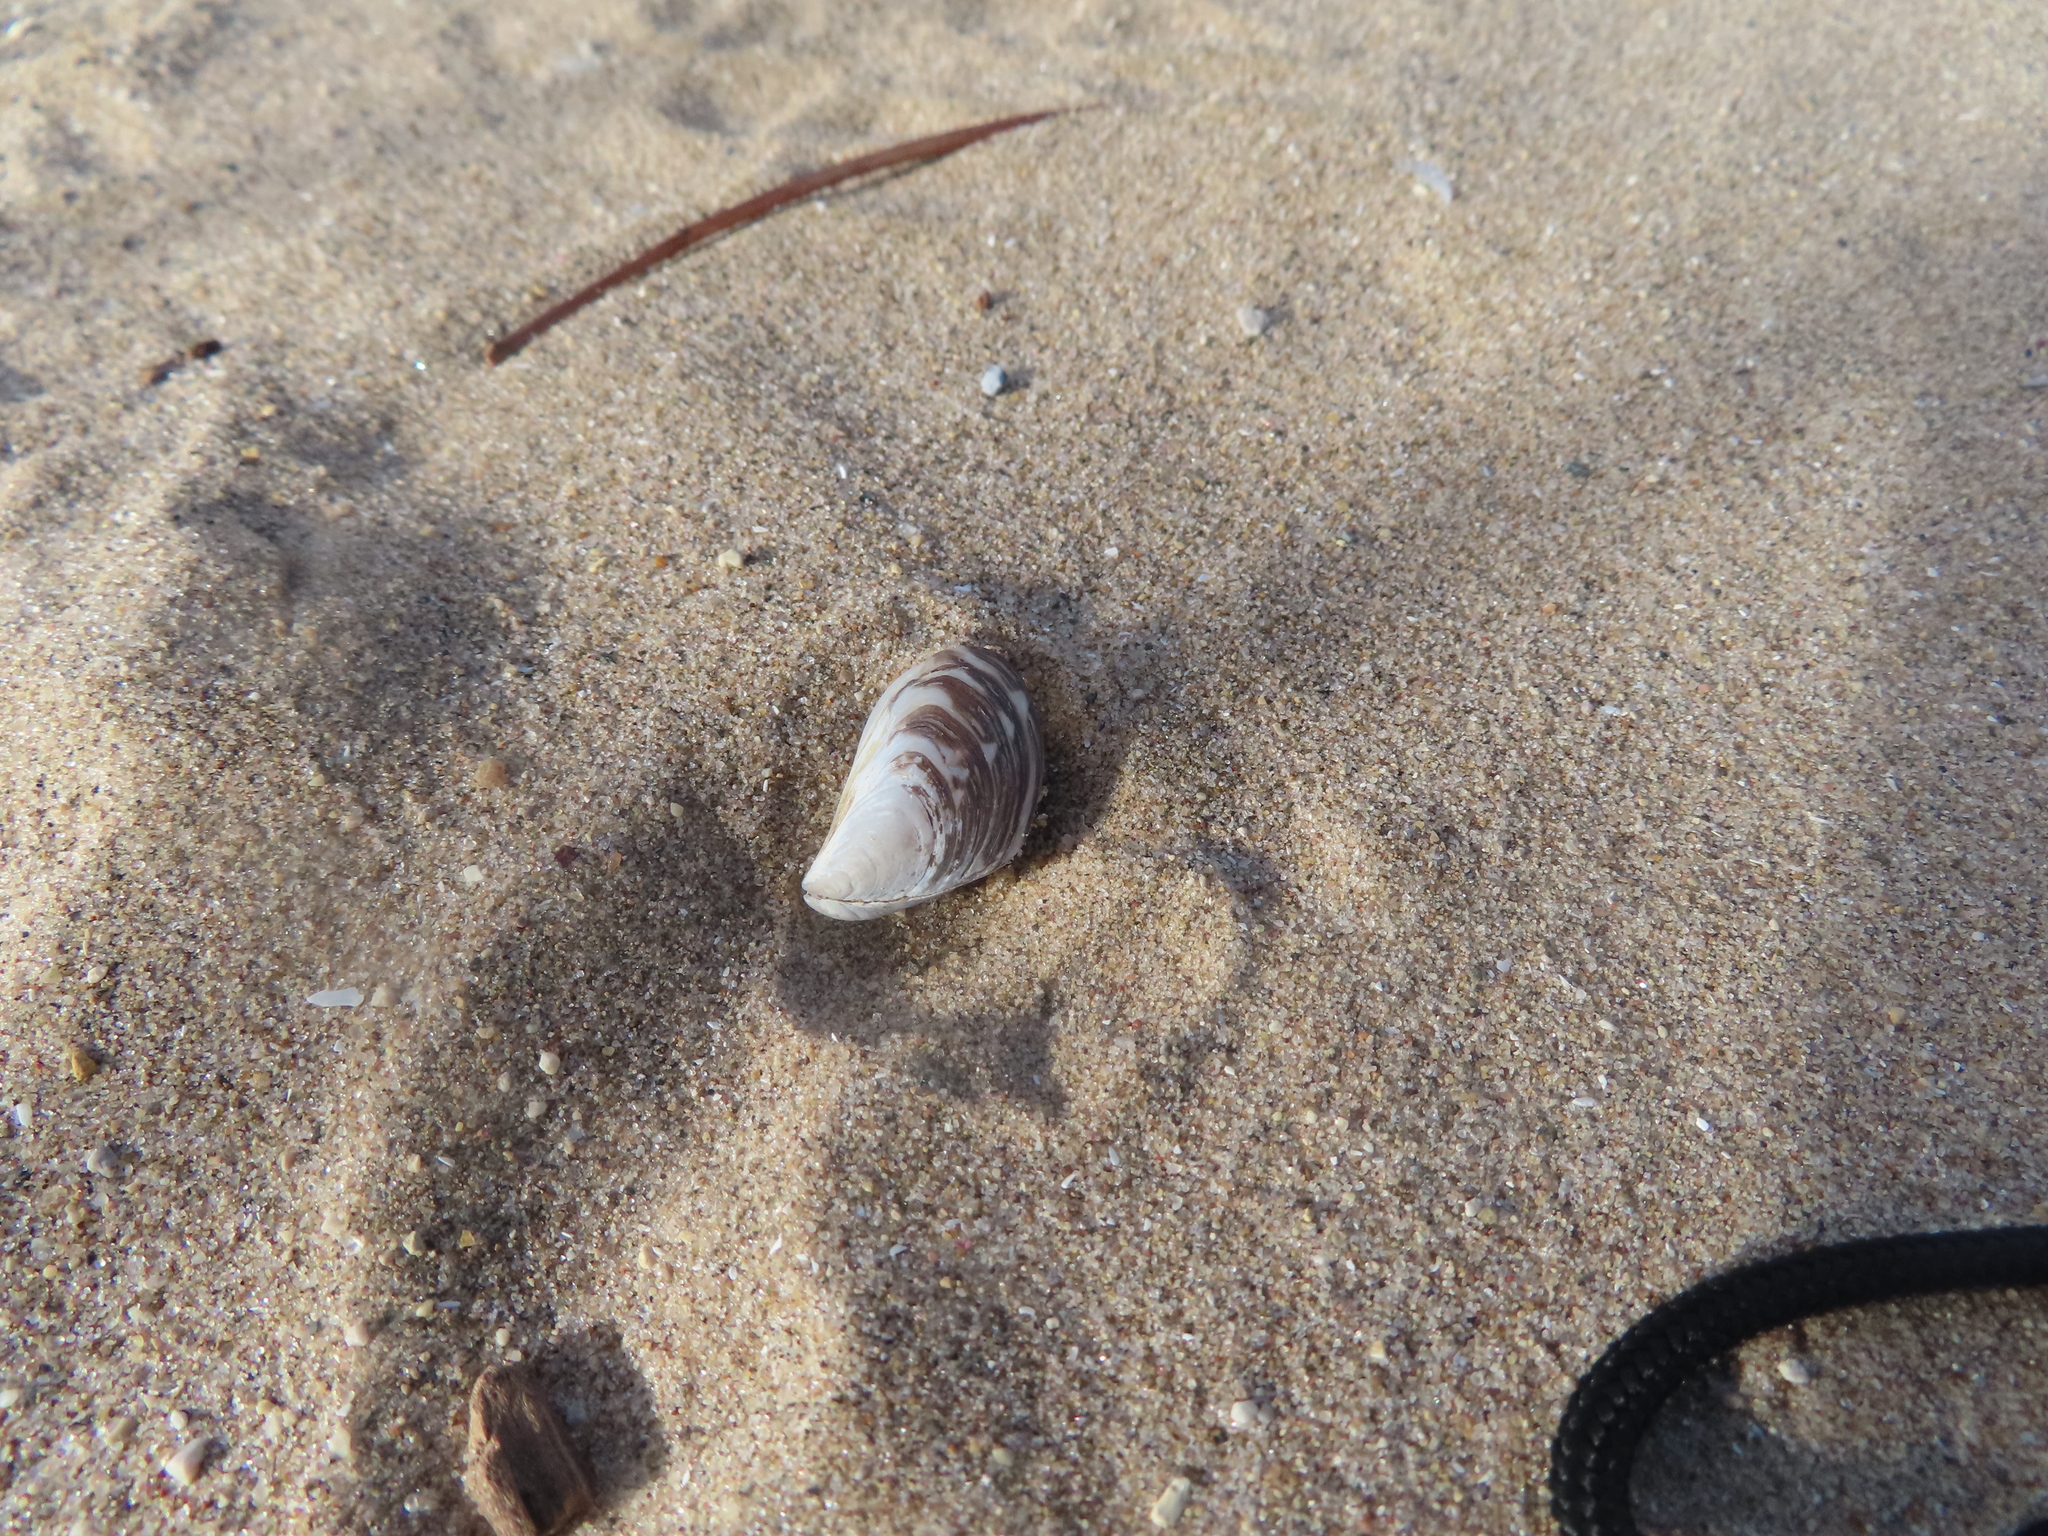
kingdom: Animalia
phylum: Mollusca
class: Bivalvia
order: Myida
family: Dreissenidae
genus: Dreissena
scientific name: Dreissena bugensis
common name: Quagga mussel
